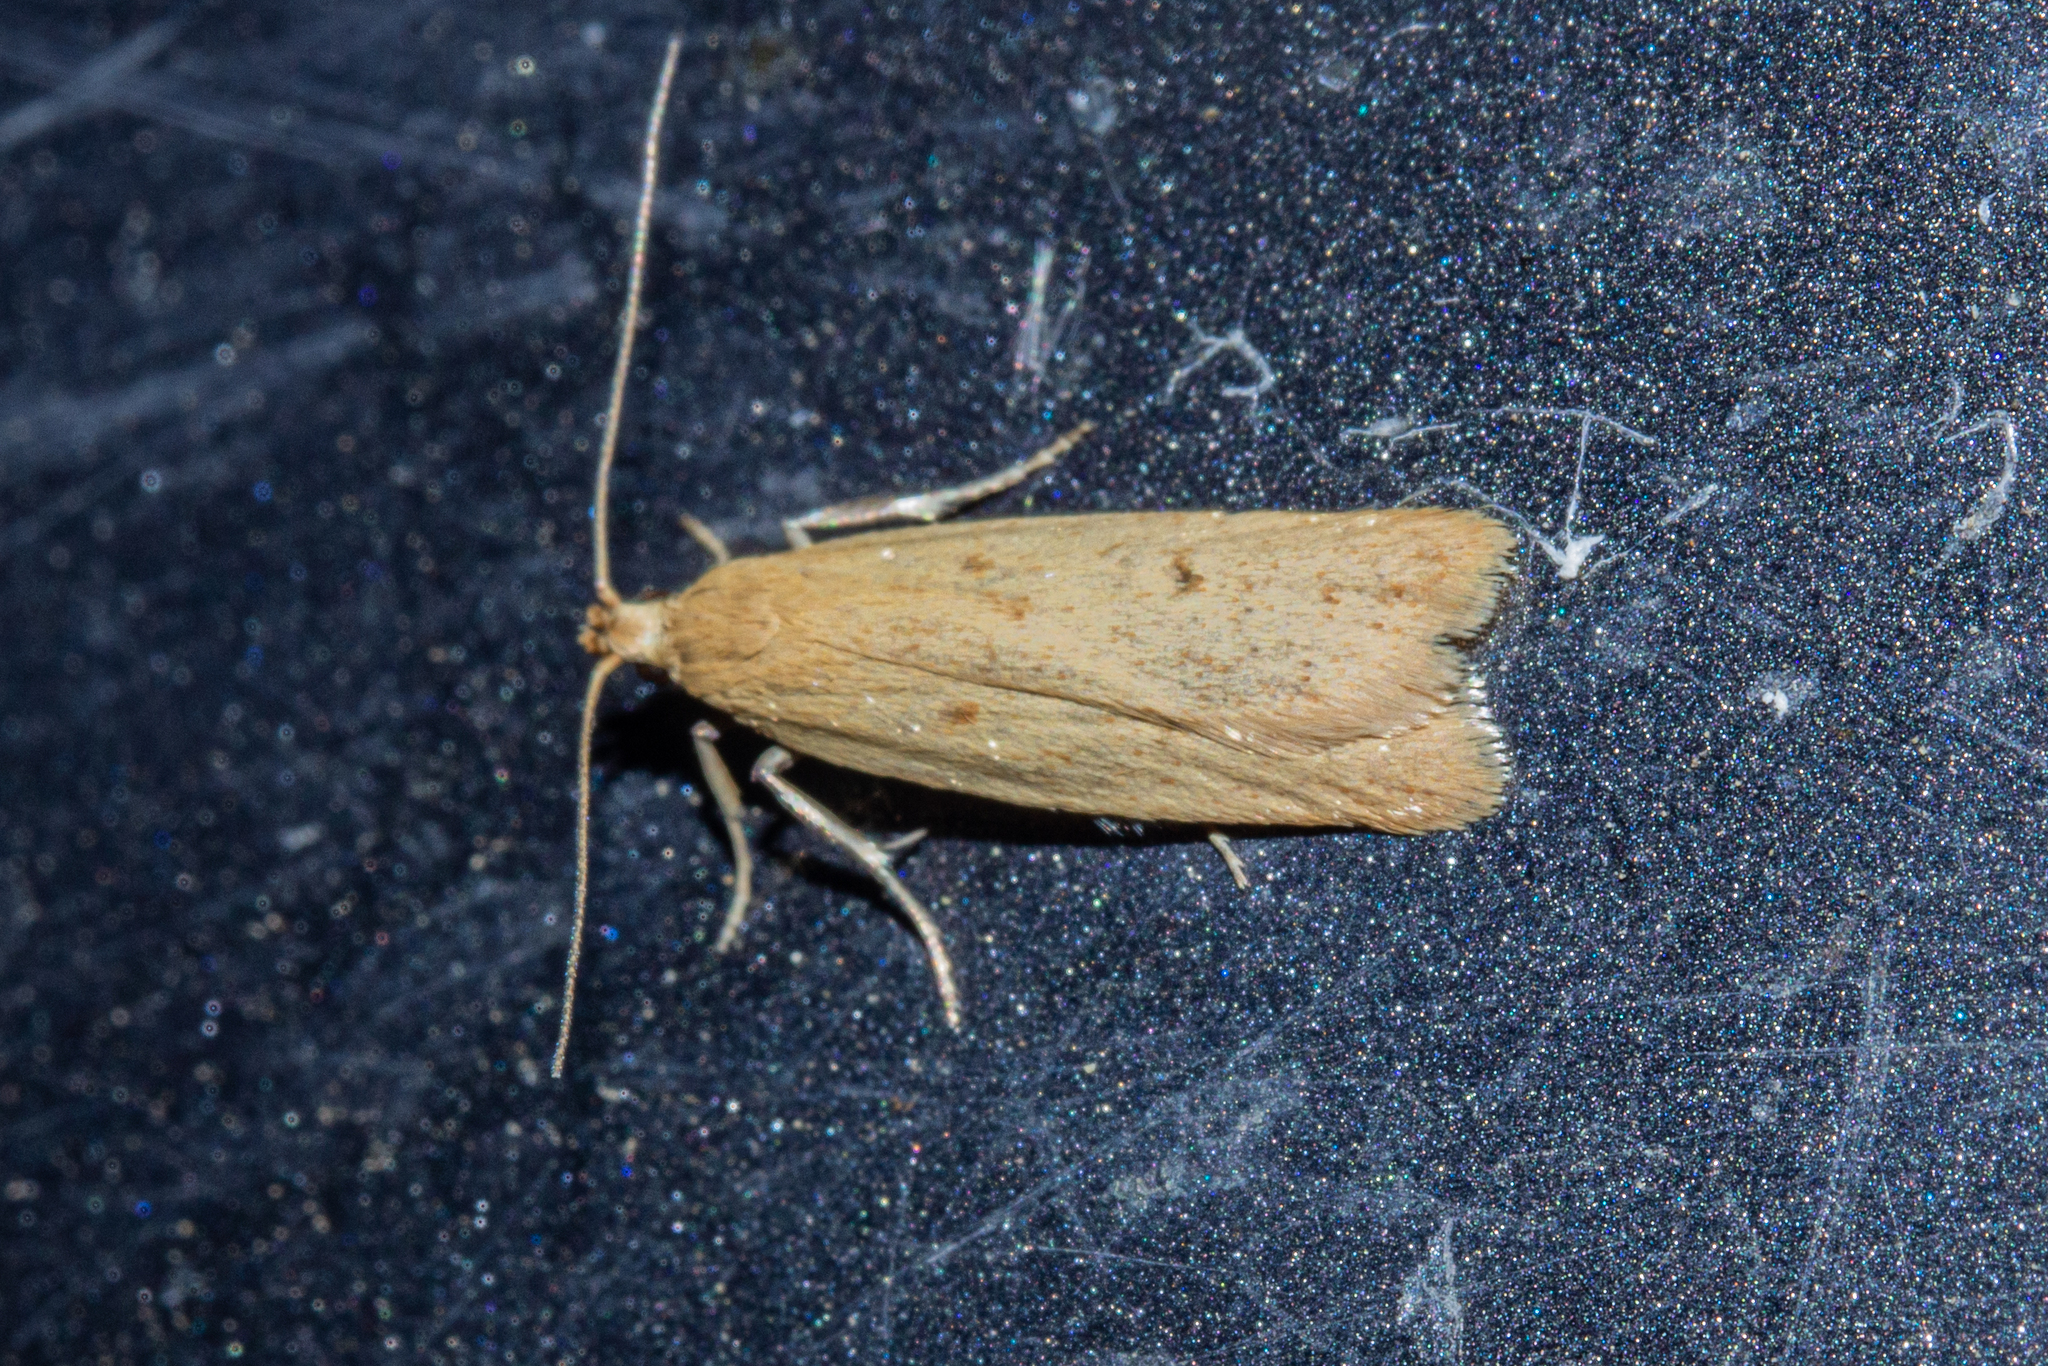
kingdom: Animalia
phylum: Arthropoda
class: Insecta
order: Lepidoptera
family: Oecophoridae
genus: Gymnobathra
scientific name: Gymnobathra sarcoxantha
